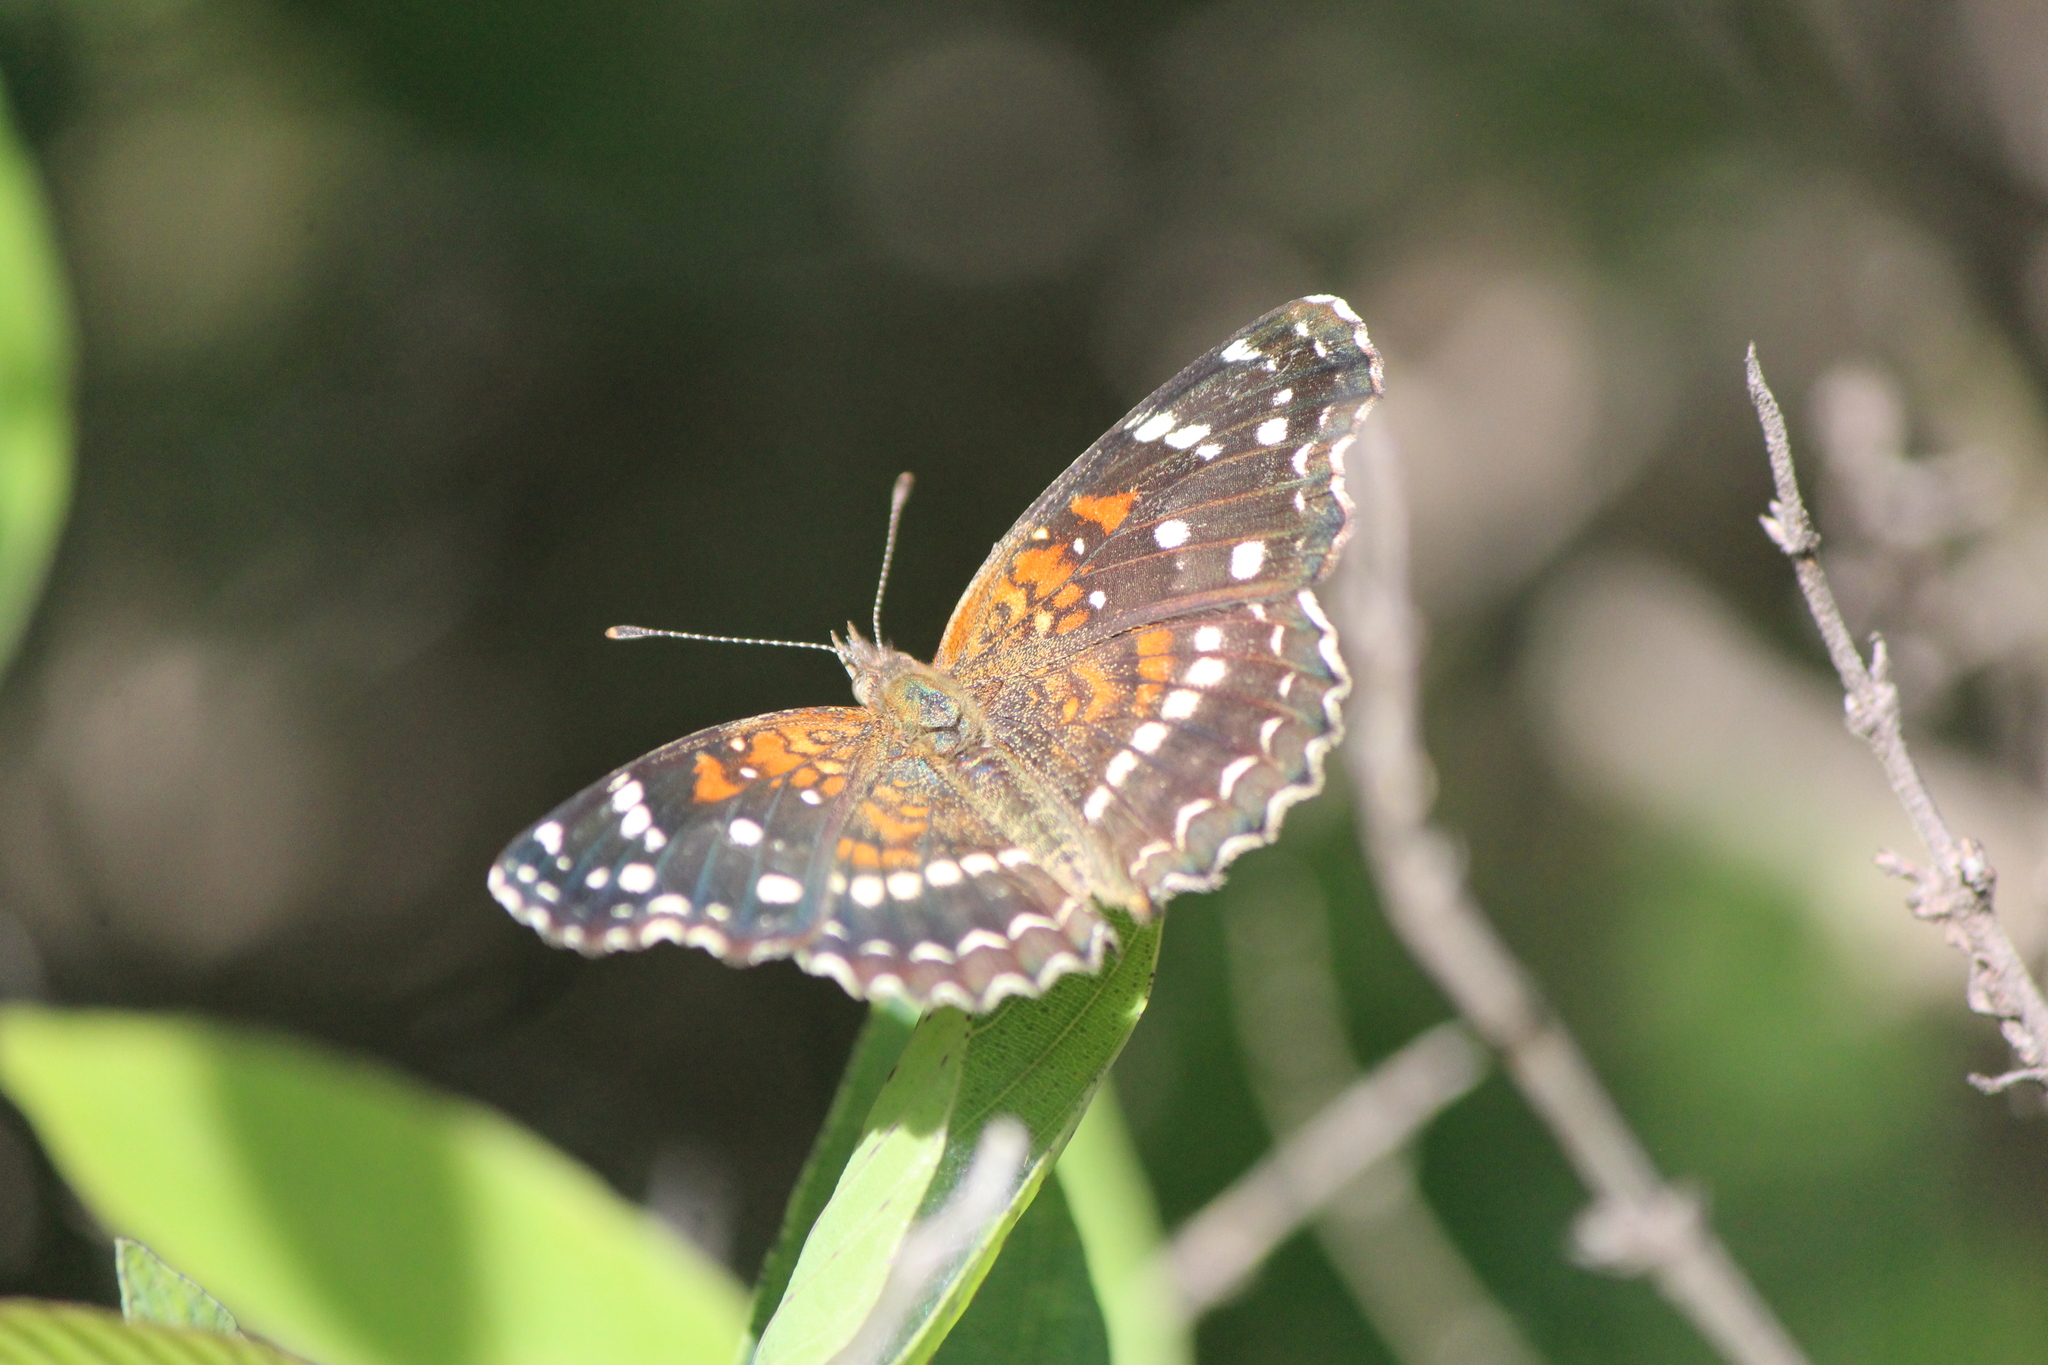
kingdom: Animalia
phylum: Arthropoda
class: Insecta
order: Lepidoptera
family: Nymphalidae
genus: Anthanassa
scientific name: Anthanassa texana
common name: Texan crescent
